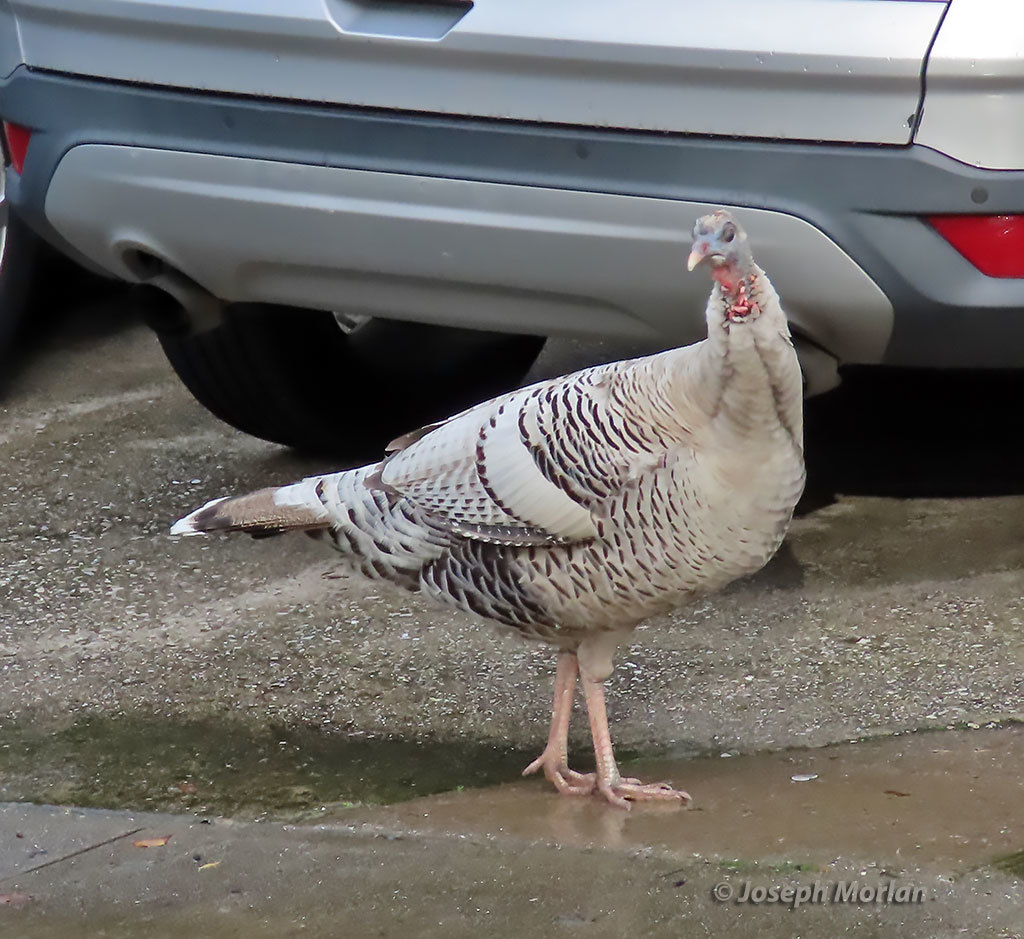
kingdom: Animalia
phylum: Chordata
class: Aves
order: Galliformes
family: Phasianidae
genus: Meleagris
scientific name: Meleagris gallopavo
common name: Wild turkey
